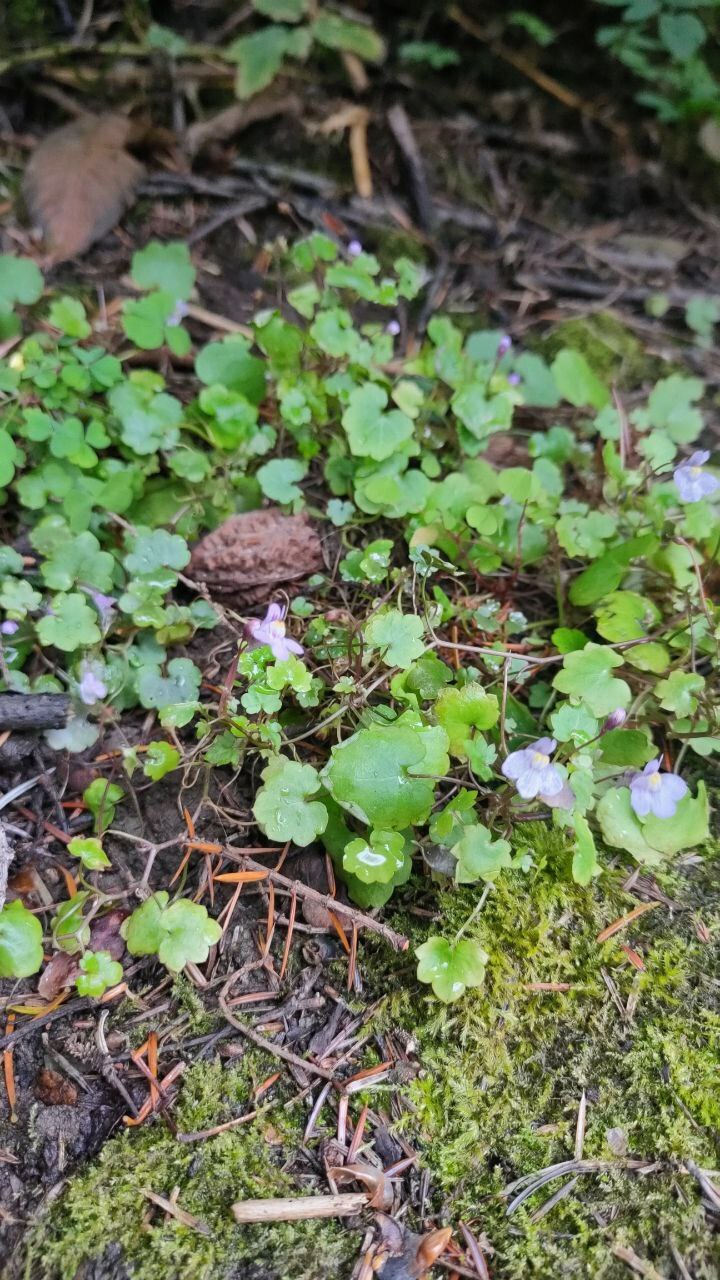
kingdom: Plantae
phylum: Tracheophyta
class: Magnoliopsida
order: Lamiales
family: Plantaginaceae
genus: Cymbalaria
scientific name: Cymbalaria muralis
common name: Ivy-leaved toadflax
